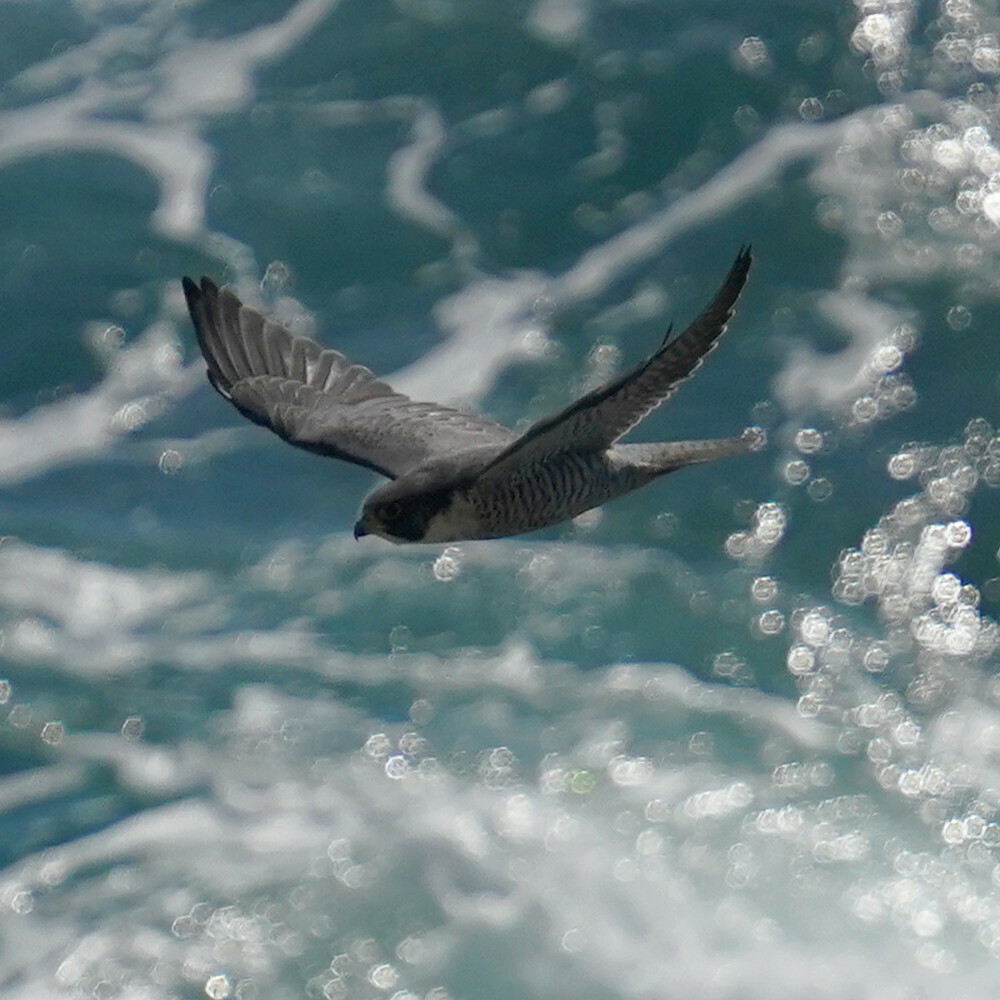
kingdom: Animalia
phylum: Chordata
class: Aves
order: Falconiformes
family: Falconidae
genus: Falco
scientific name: Falco peregrinus
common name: Peregrine falcon
